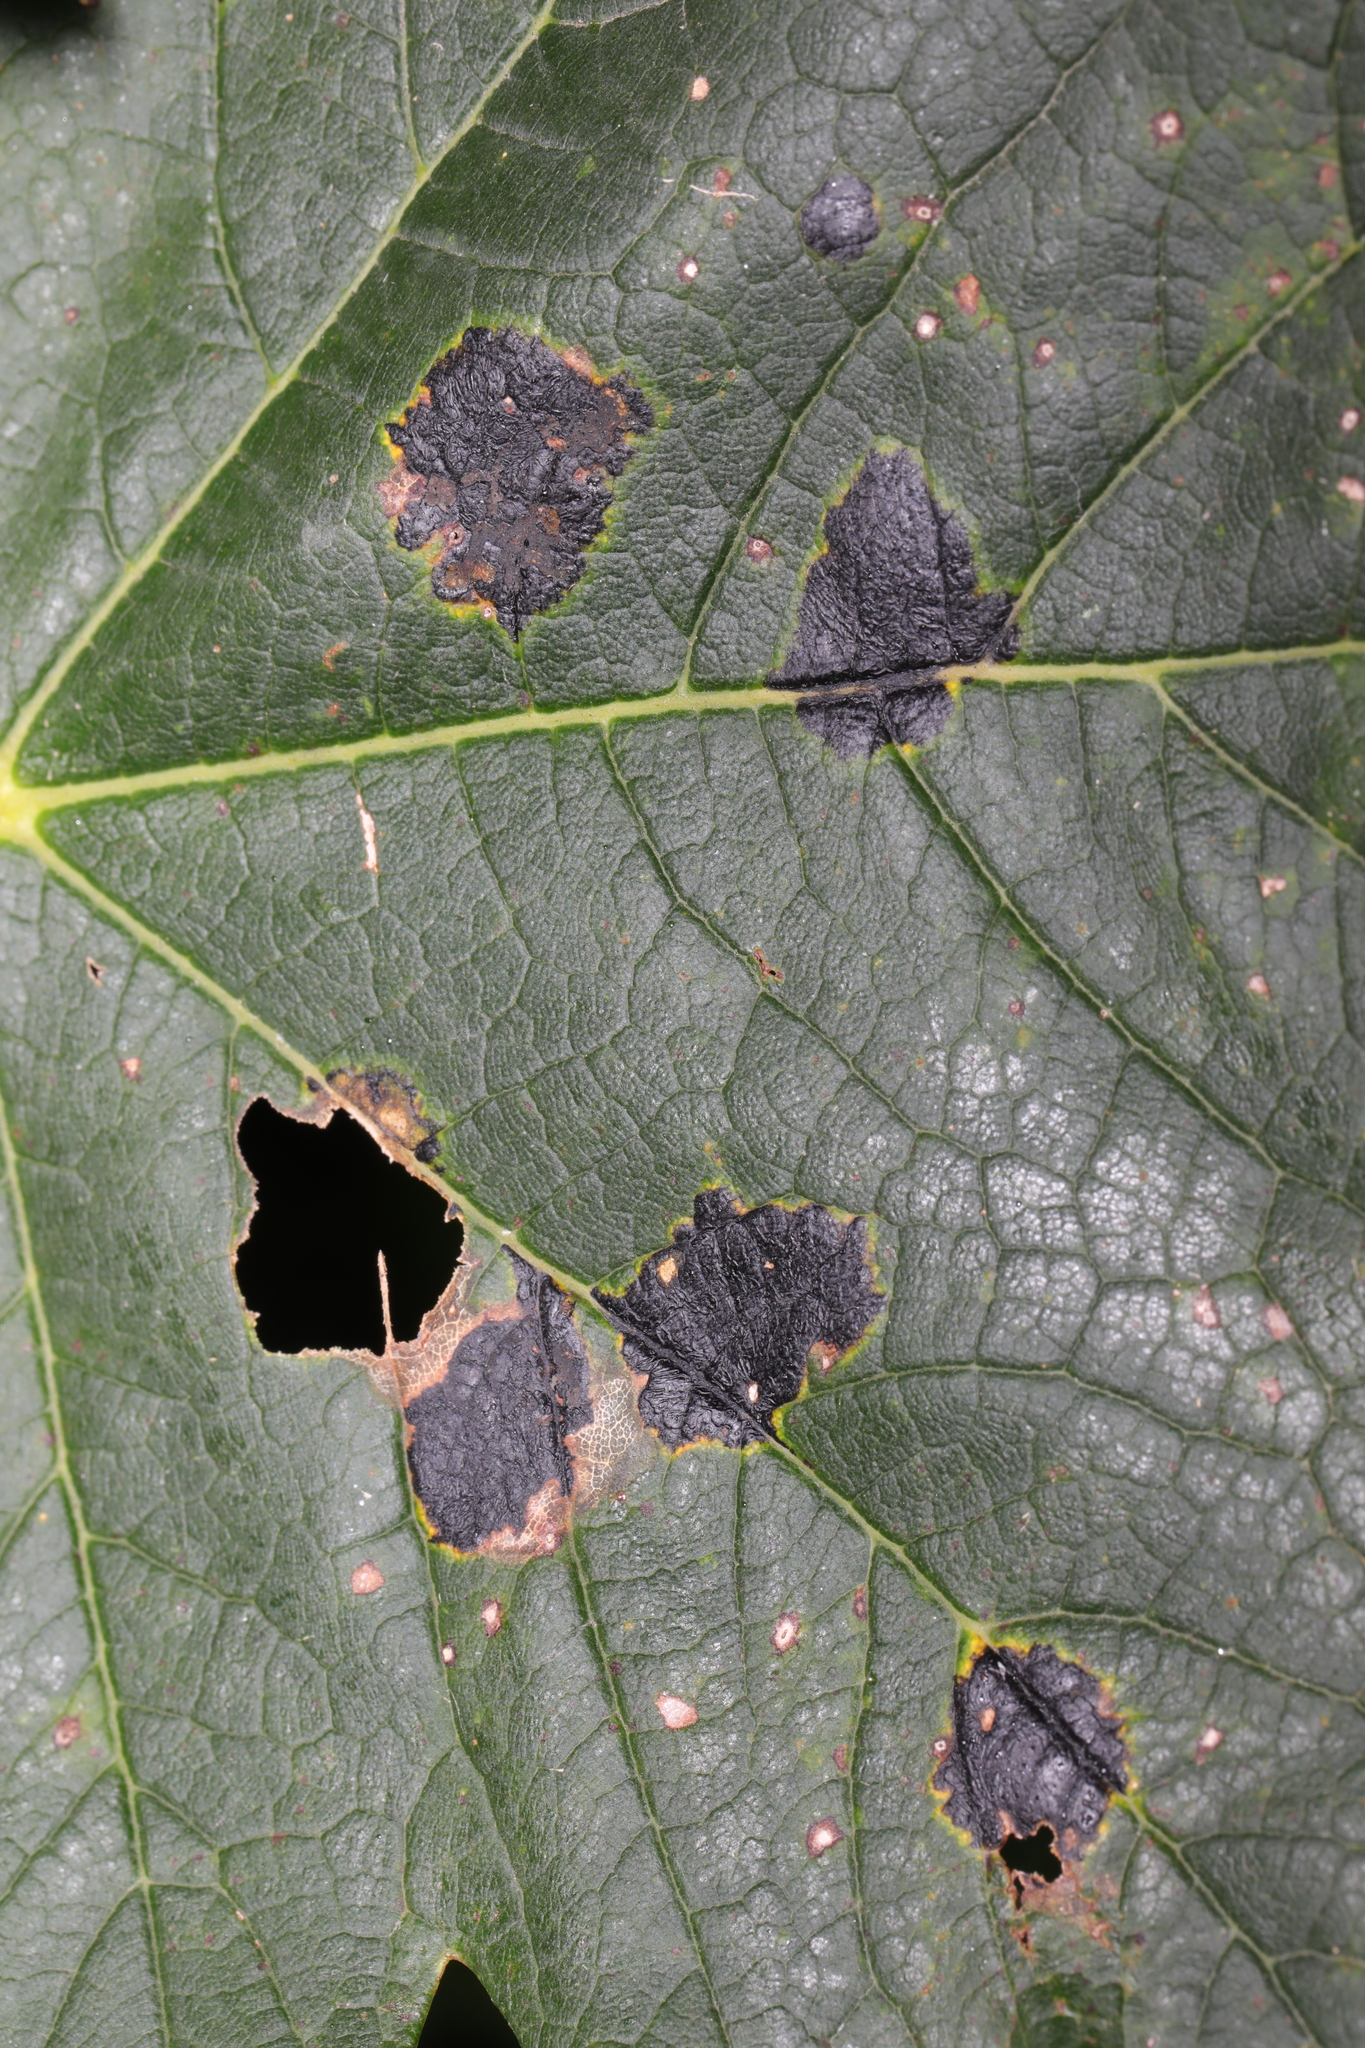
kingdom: Fungi
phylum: Ascomycota
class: Leotiomycetes
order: Rhytismatales
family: Rhytismataceae
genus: Rhytisma
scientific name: Rhytisma acerinum
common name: European tar spot
